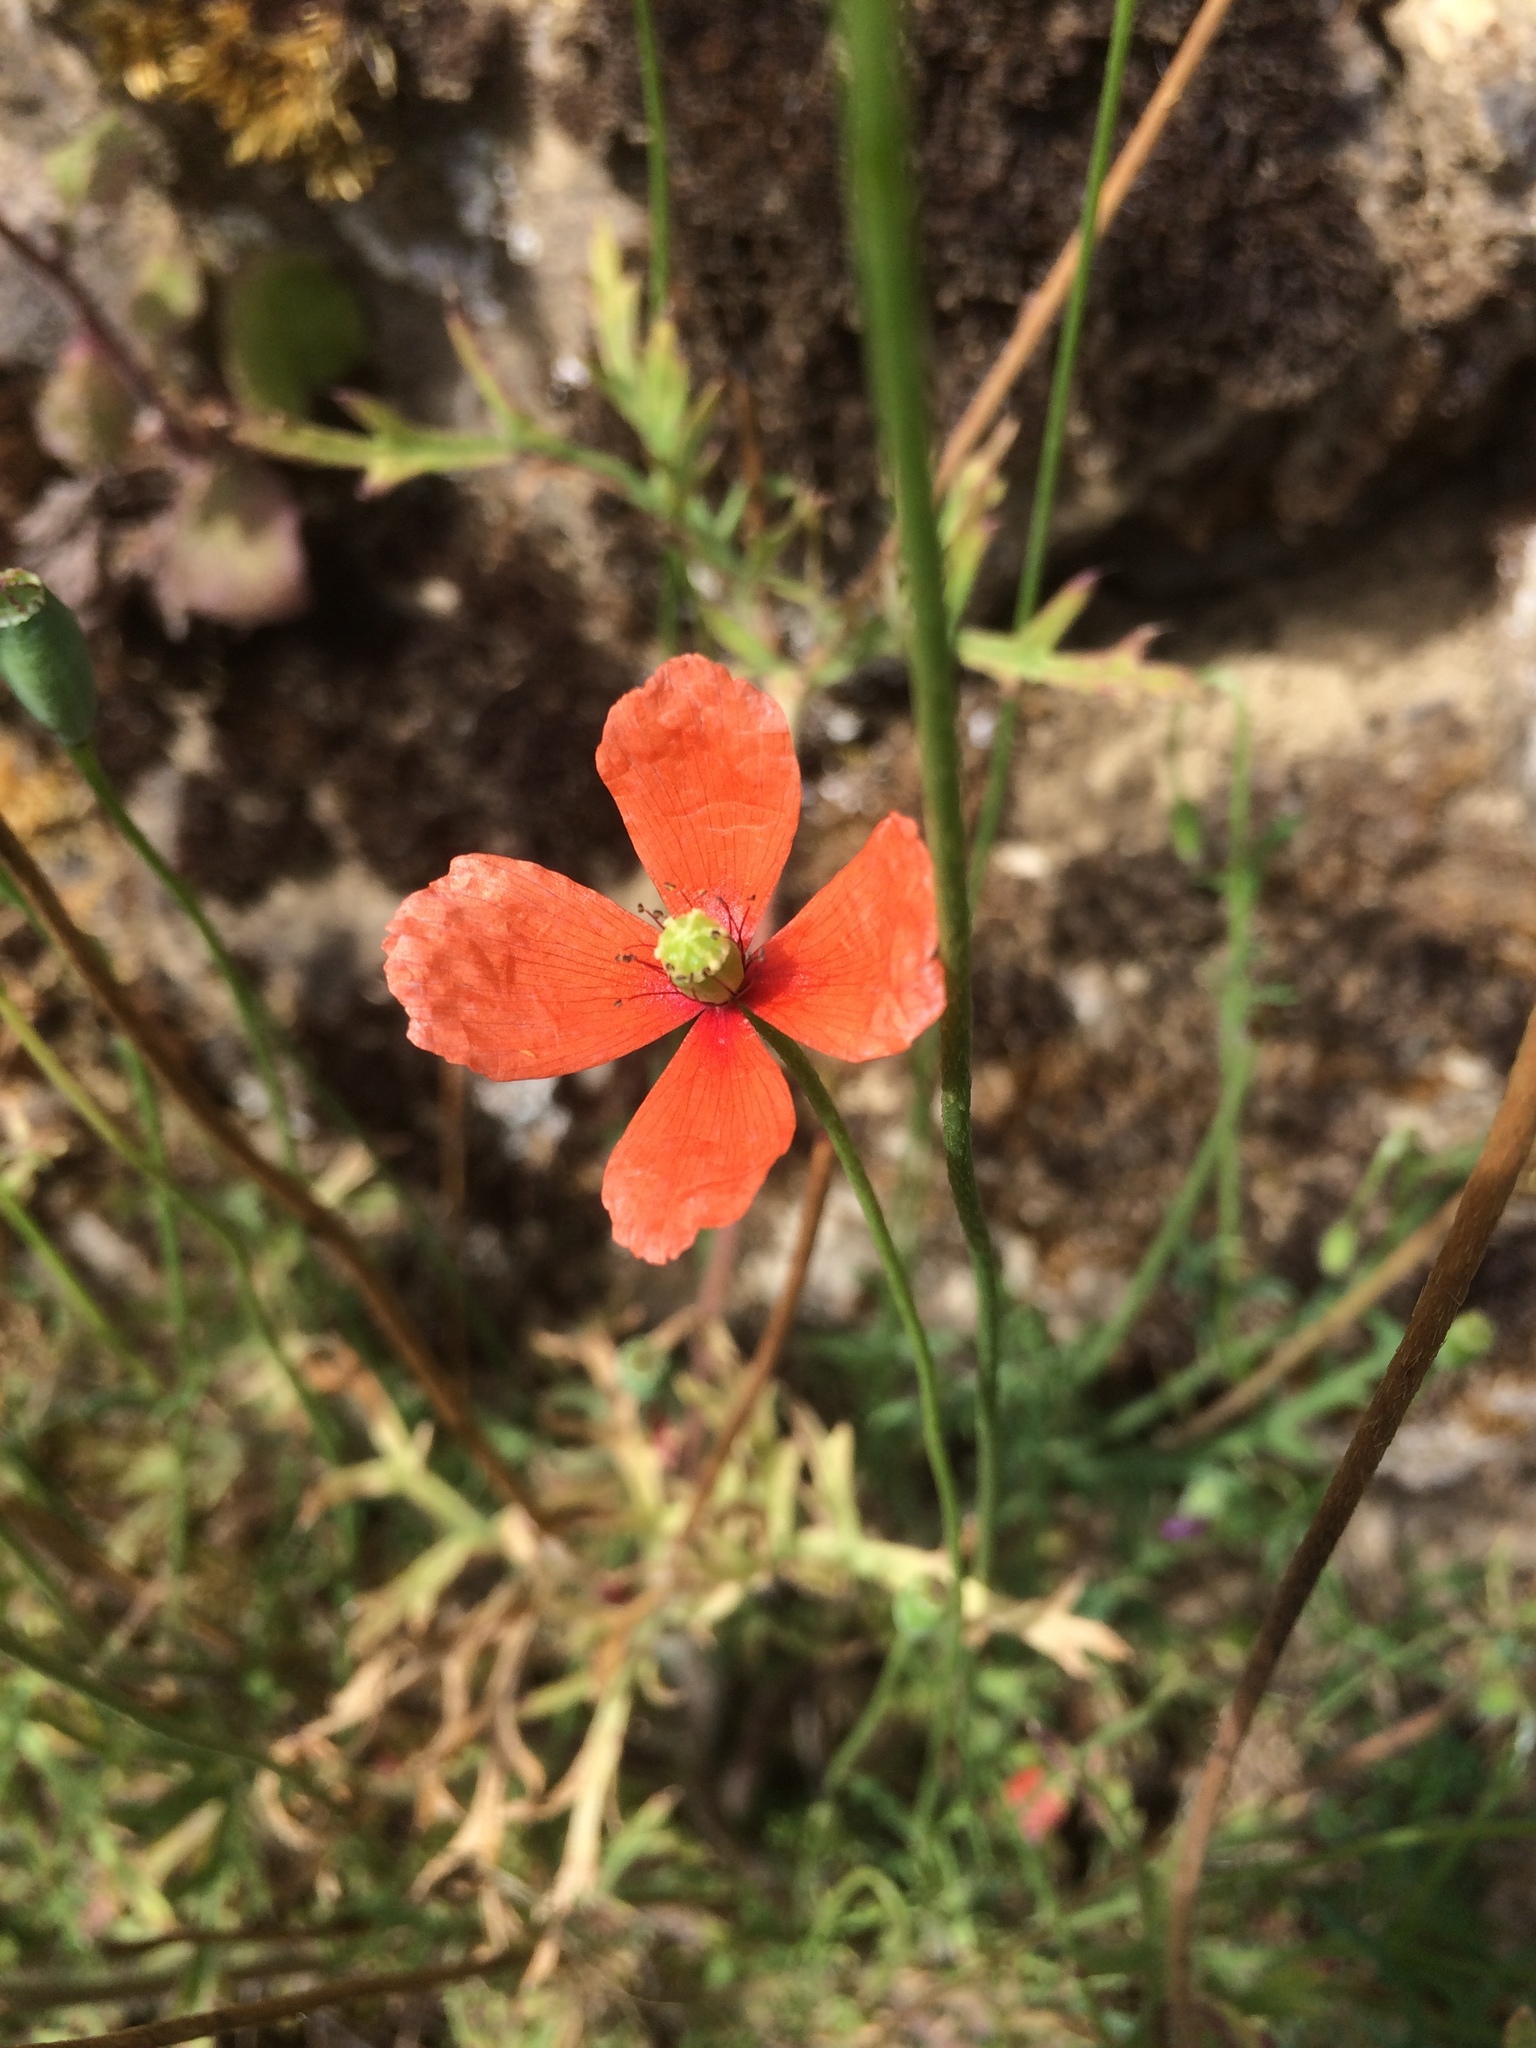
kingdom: Plantae
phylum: Tracheophyta
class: Magnoliopsida
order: Ranunculales
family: Papaveraceae
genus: Papaver
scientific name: Papaver dubium
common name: Long-headed poppy
